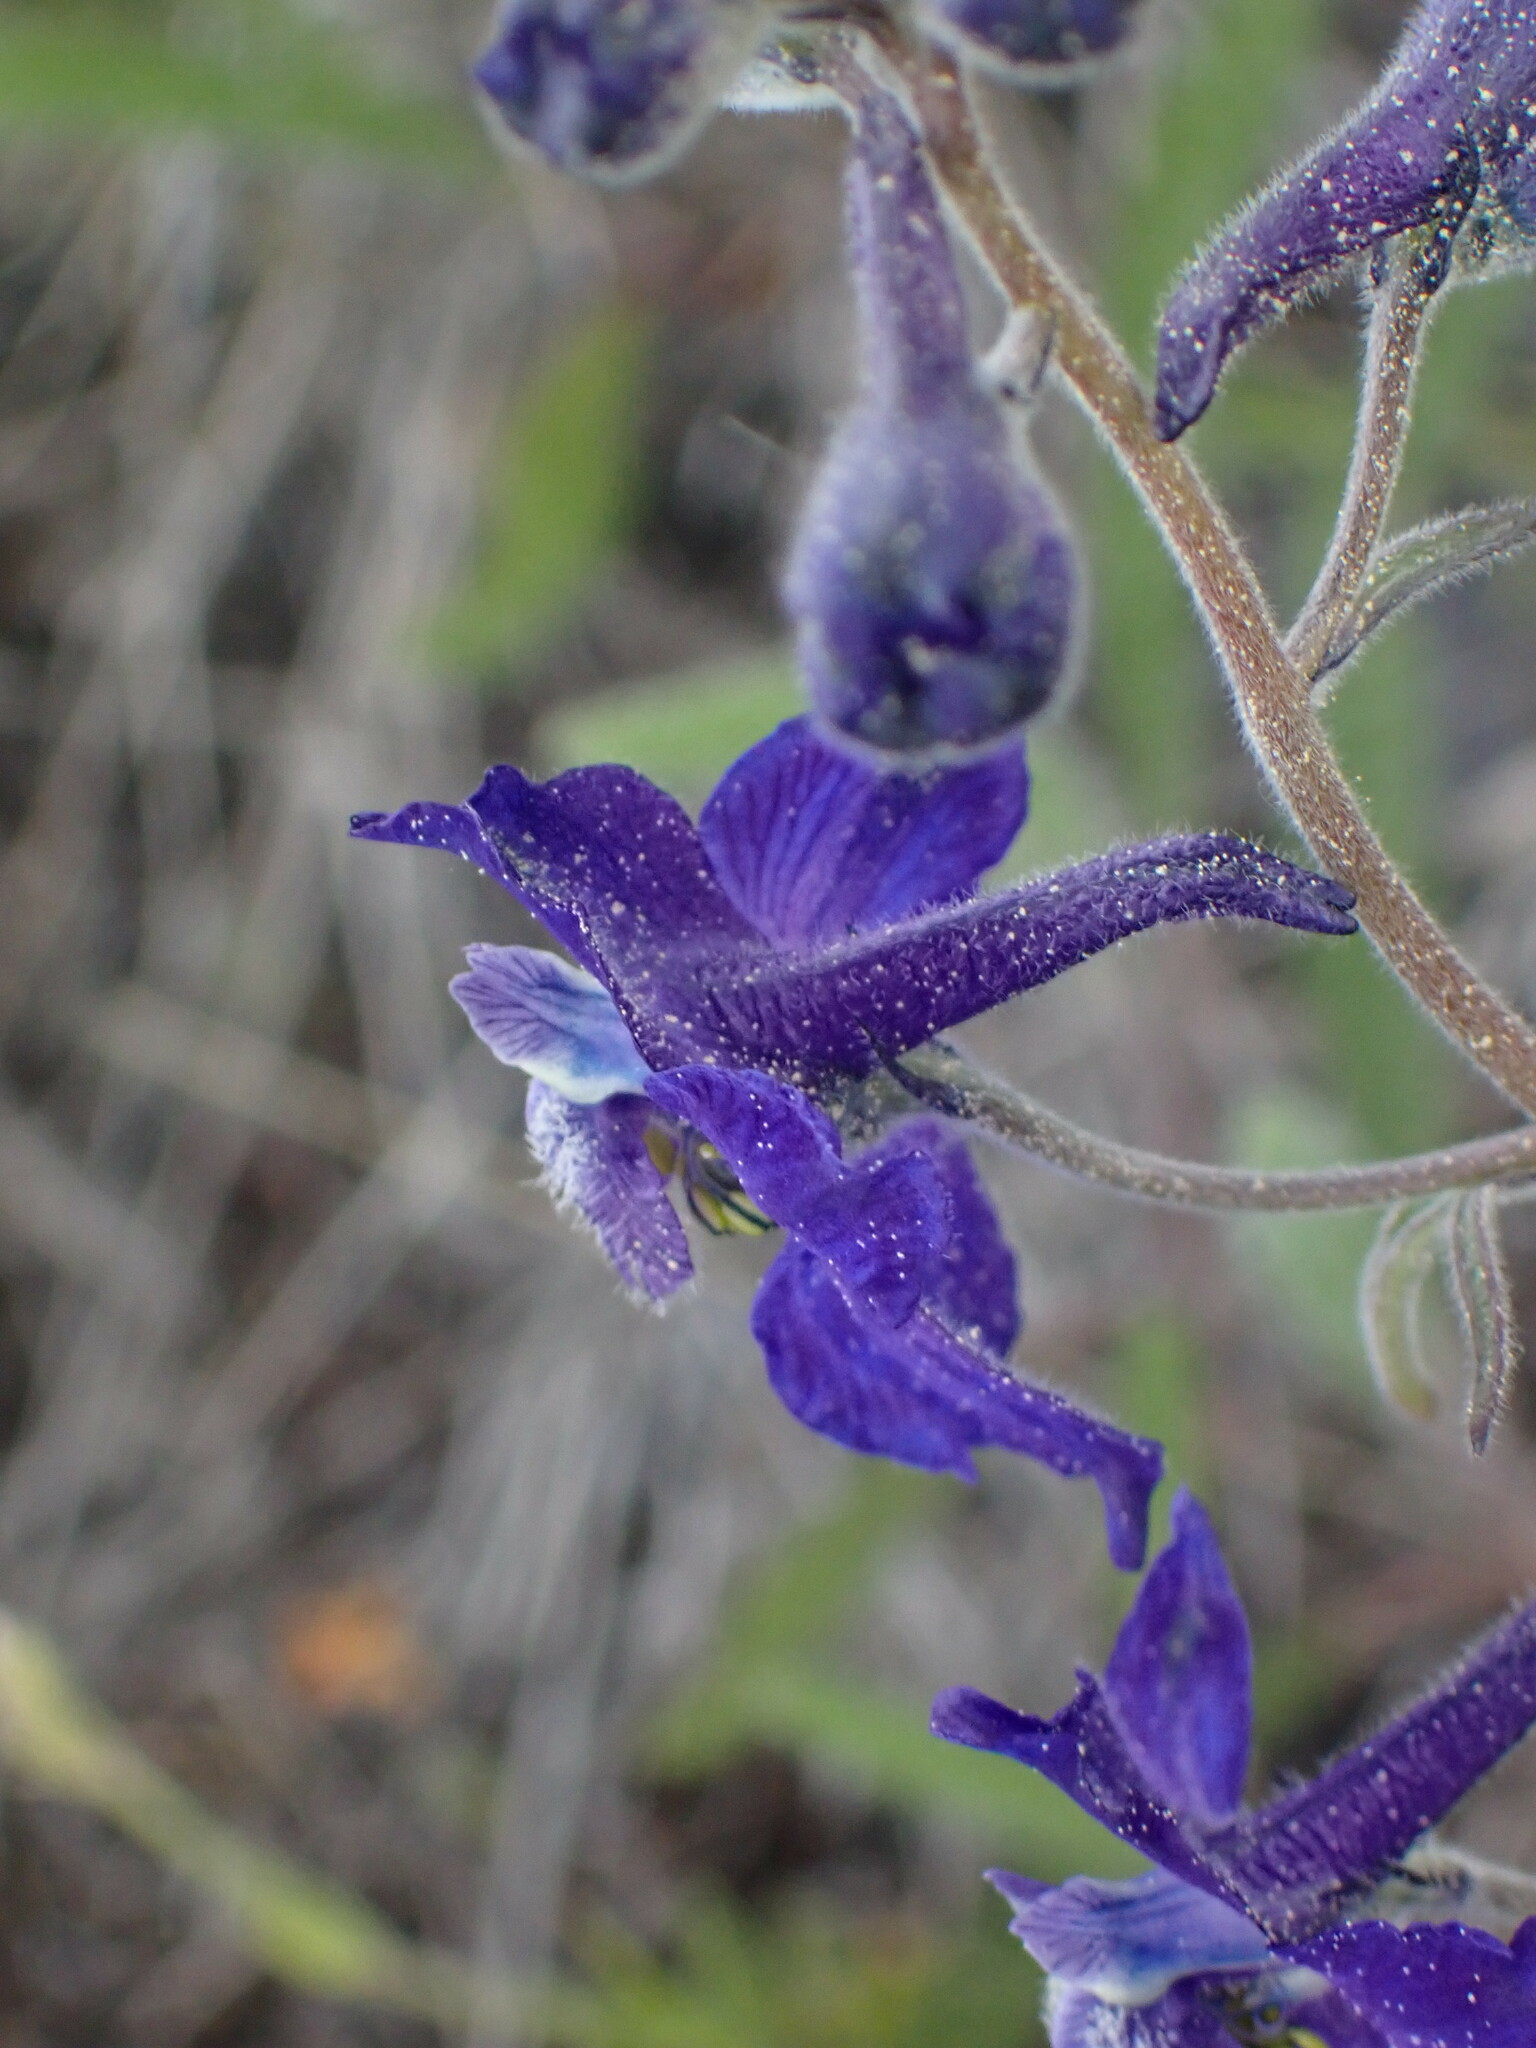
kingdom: Plantae
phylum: Tracheophyta
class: Magnoliopsida
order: Ranunculales
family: Ranunculaceae
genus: Delphinium
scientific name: Delphinium nuttallianum
